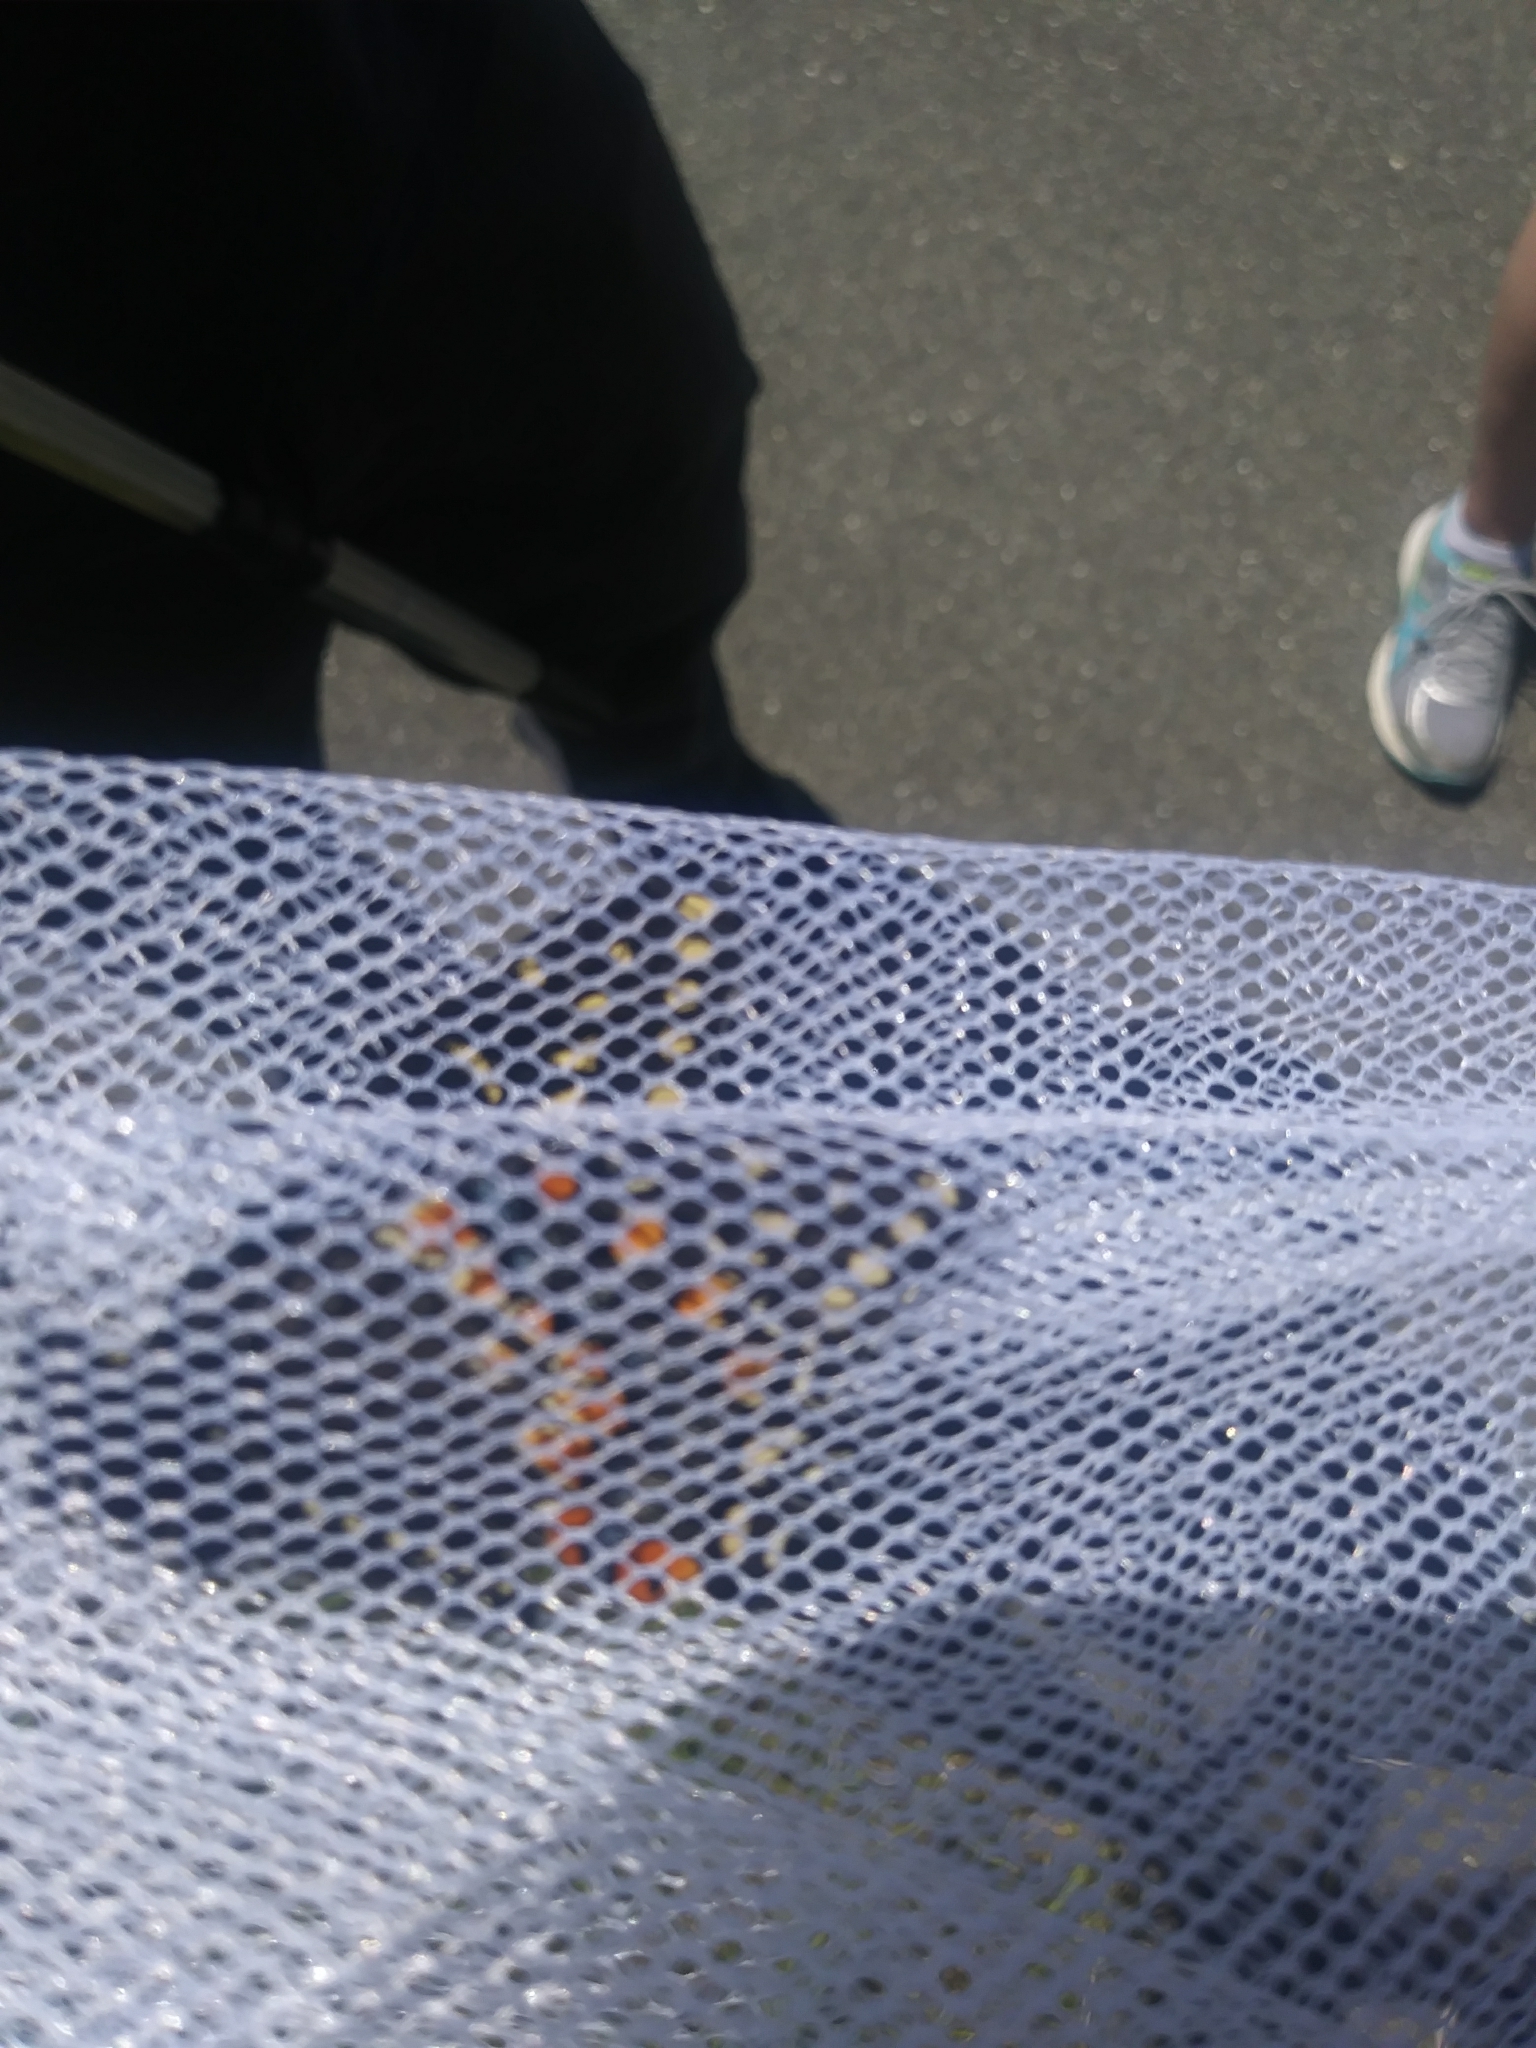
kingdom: Animalia
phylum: Arthropoda
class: Insecta
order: Lepidoptera
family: Papilionidae
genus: Papilio
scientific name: Papilio polyxenes
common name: Black swallowtail
